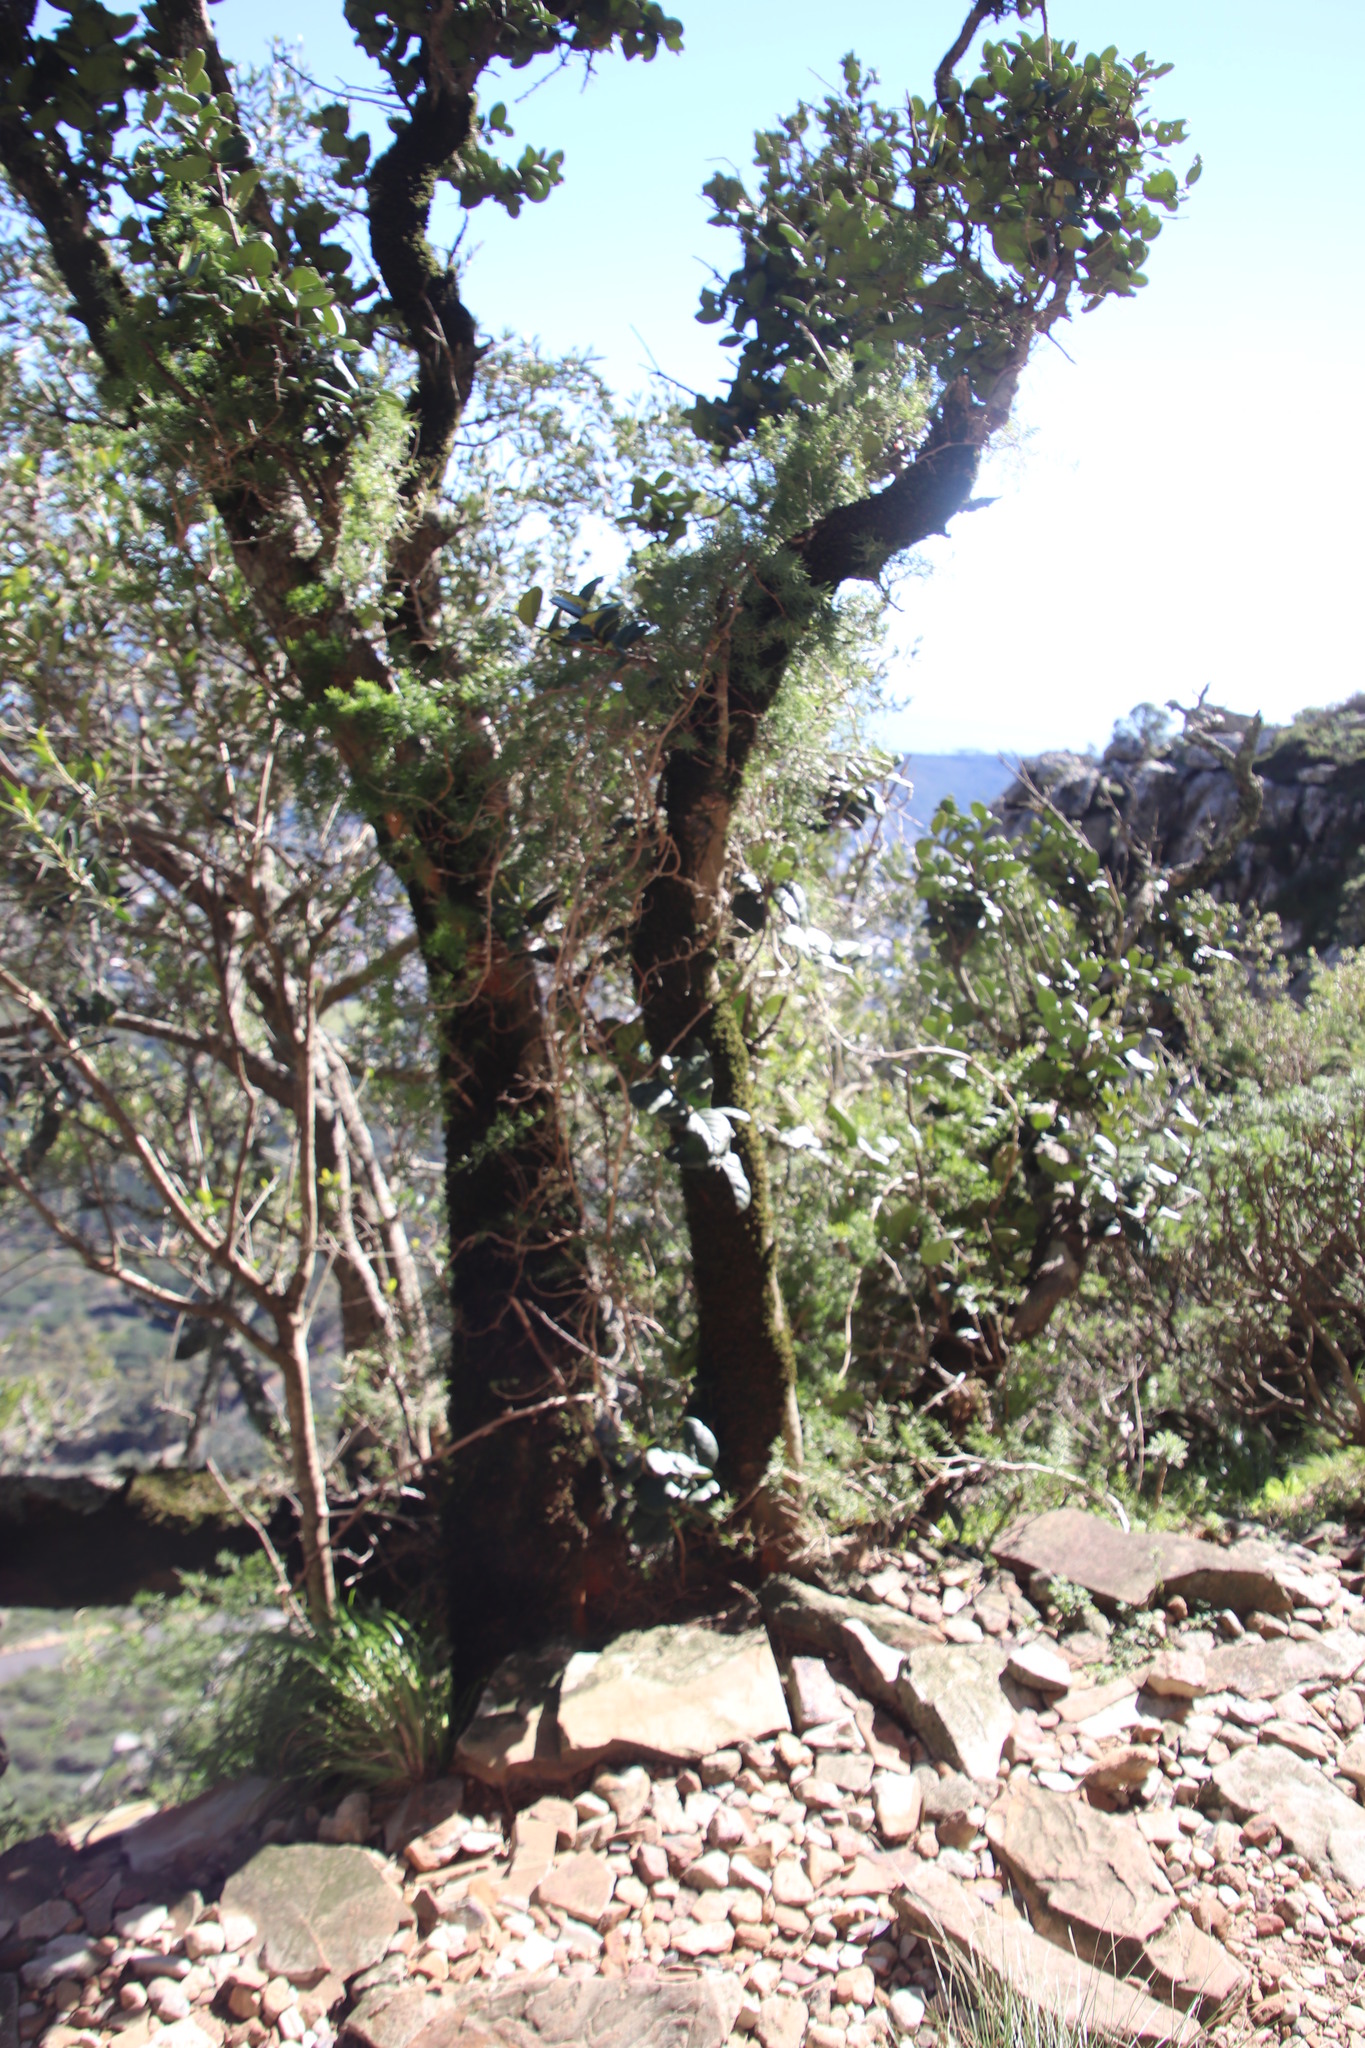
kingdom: Plantae
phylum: Tracheophyta
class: Liliopsida
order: Asparagales
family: Asparagaceae
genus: Asparagus
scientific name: Asparagus scandens
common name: Asparagus-fern
